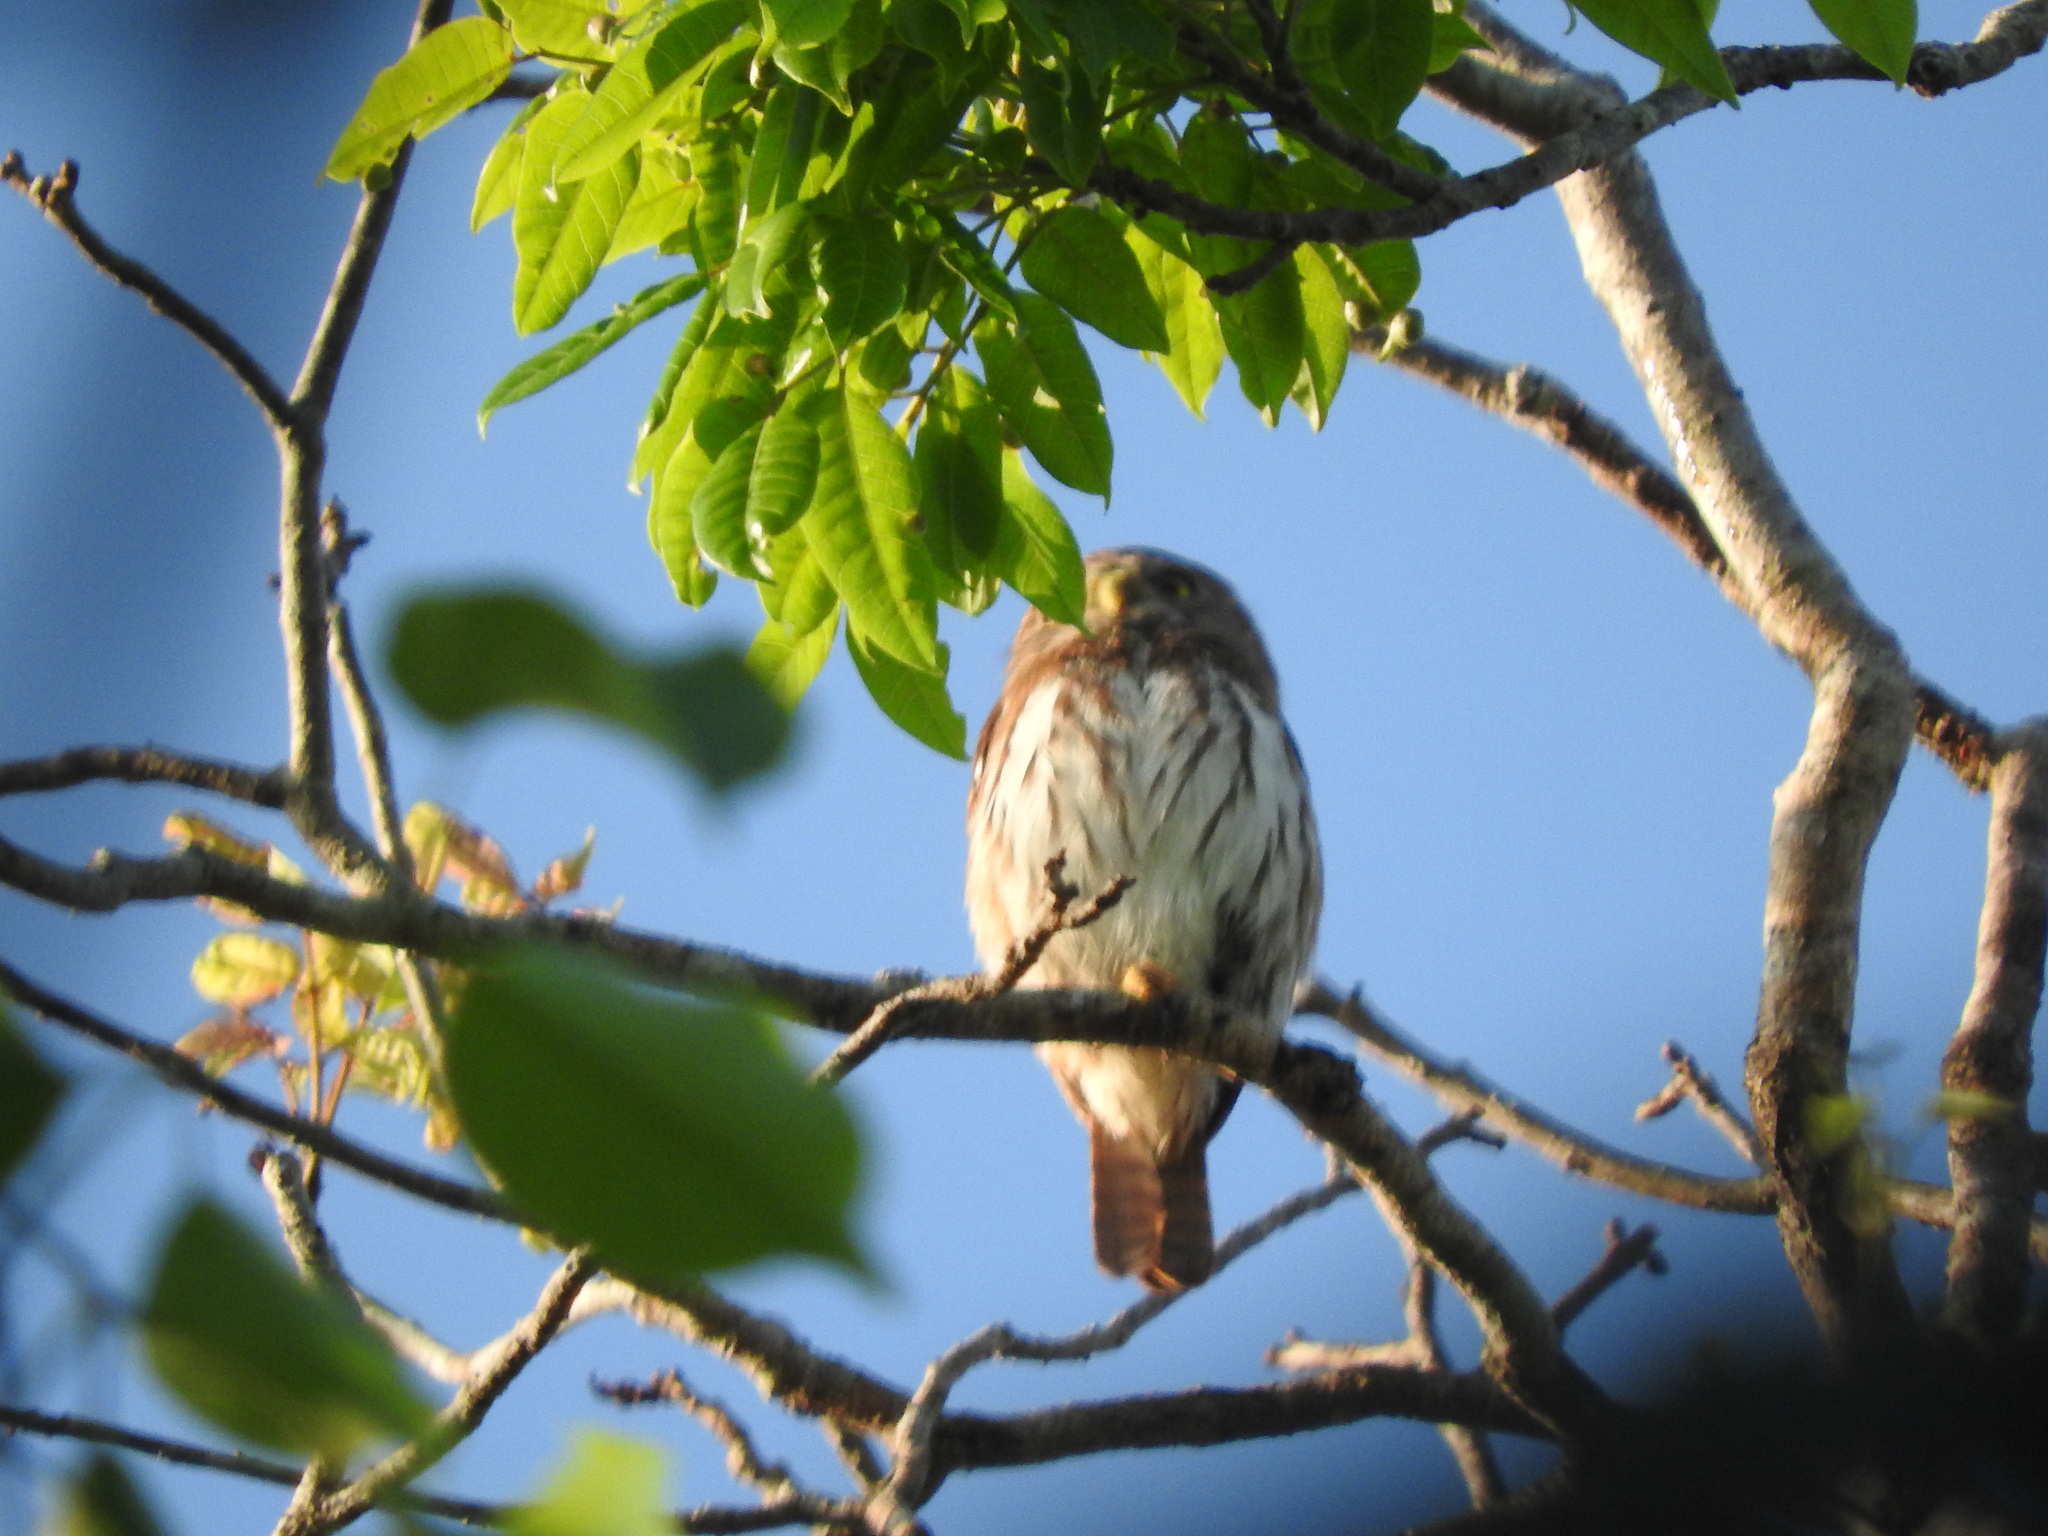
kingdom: Animalia
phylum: Chordata
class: Aves
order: Strigiformes
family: Strigidae
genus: Glaucidium
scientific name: Glaucidium brasilianum
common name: Ferruginous pygmy-owl
